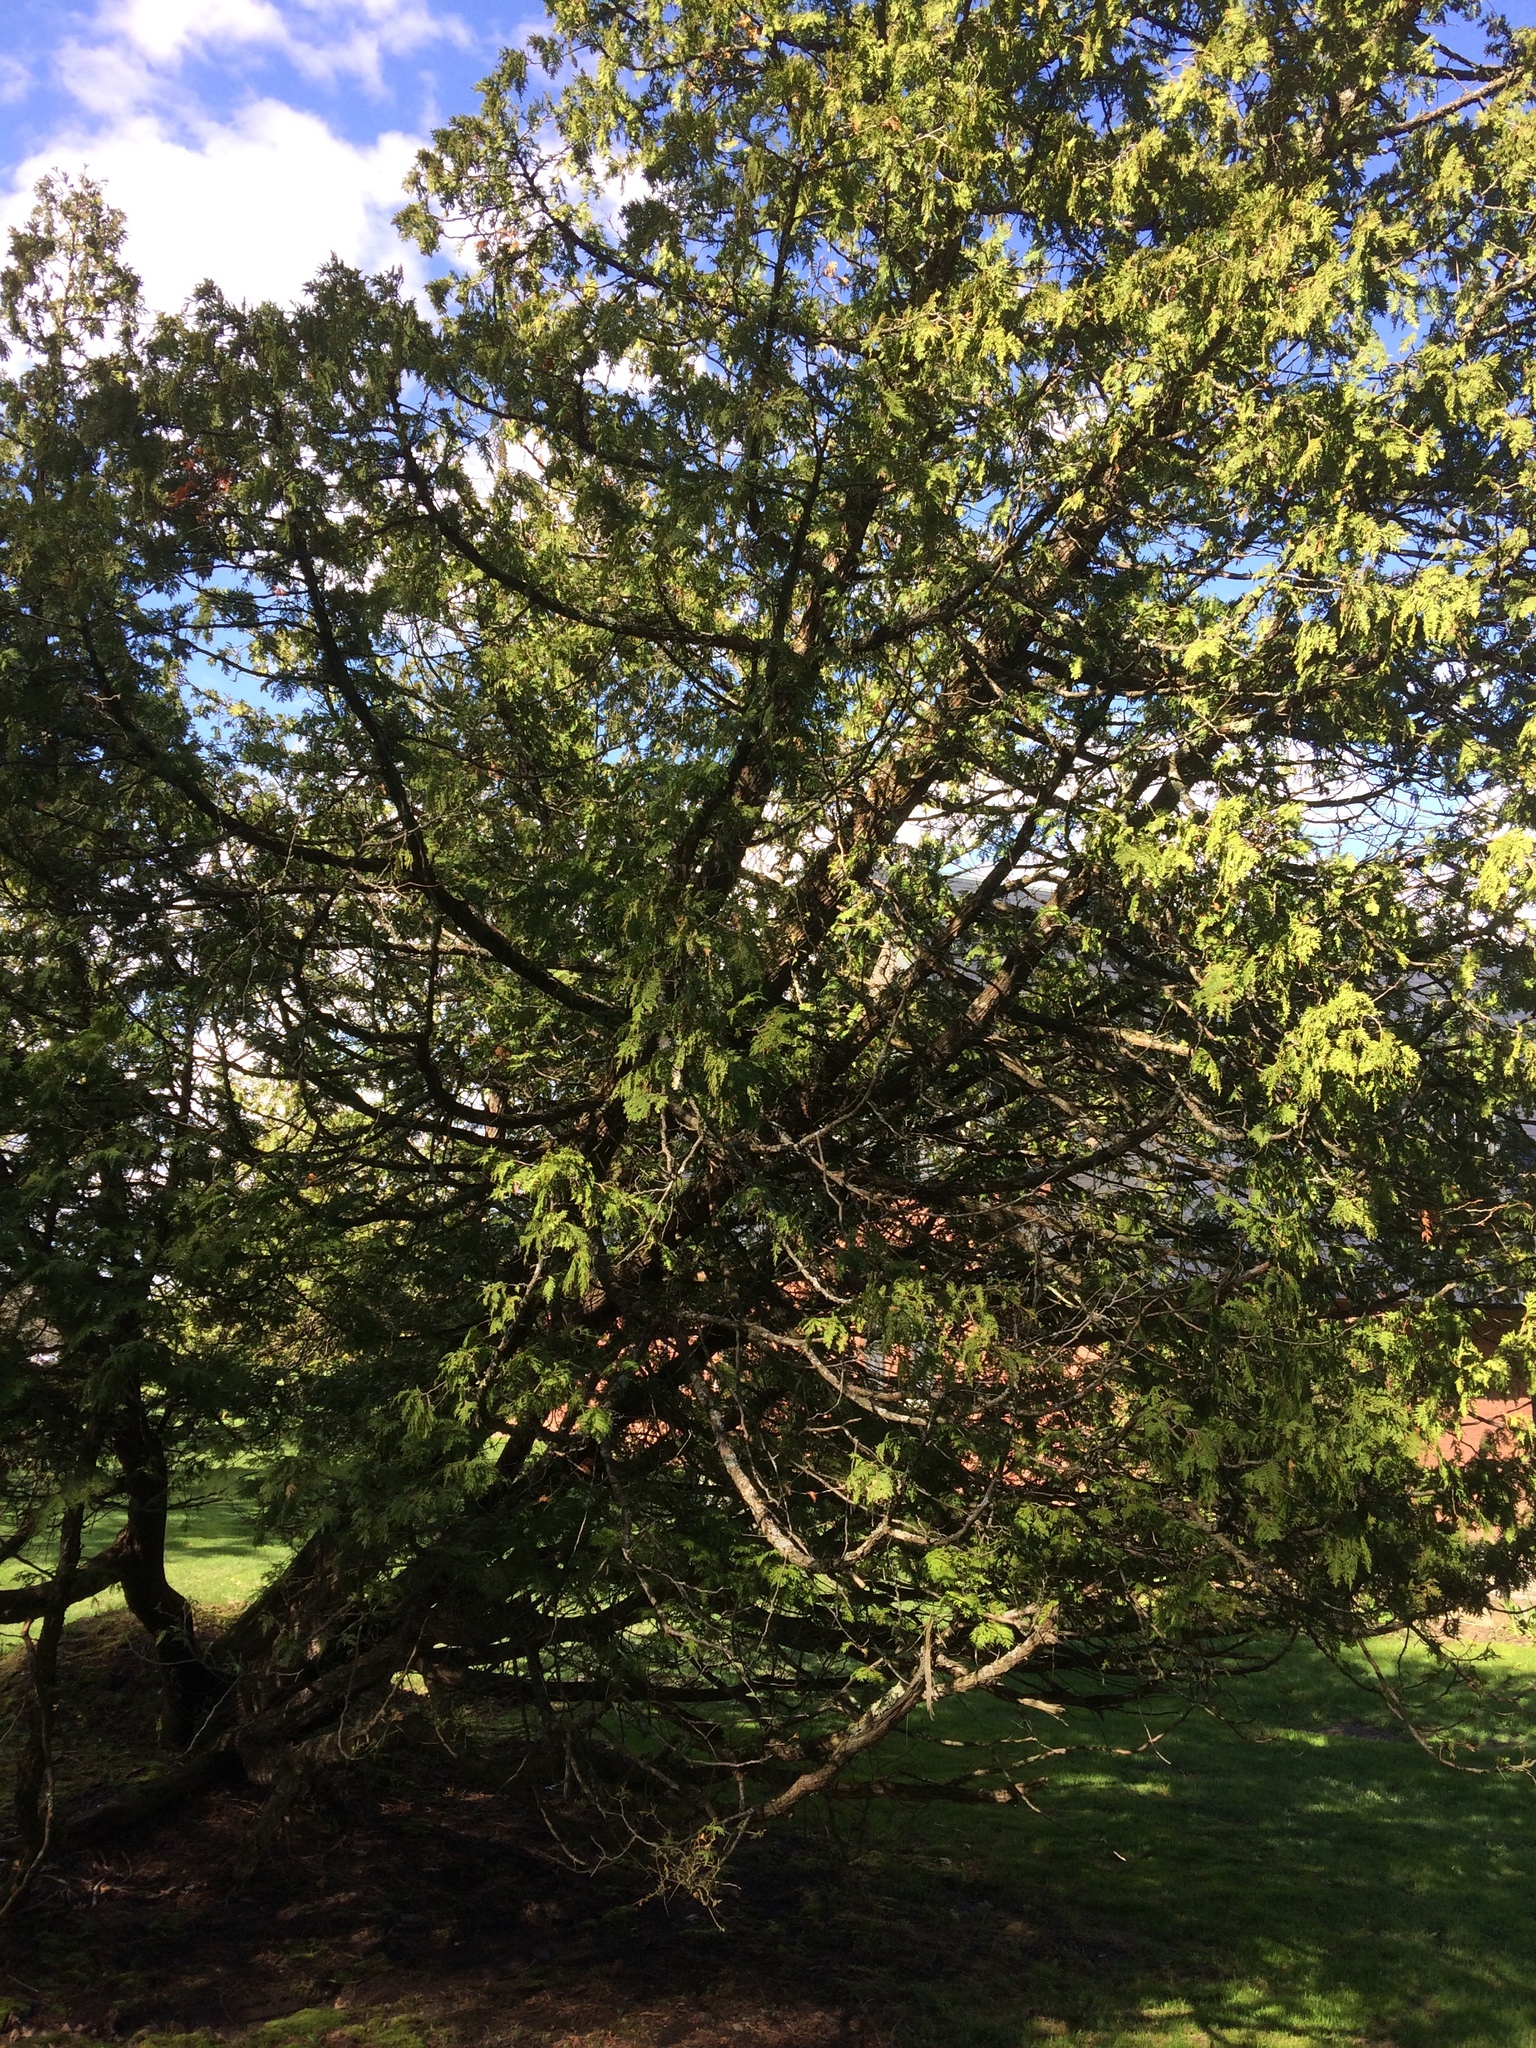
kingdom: Plantae
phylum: Tracheophyta
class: Pinopsida
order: Pinales
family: Cupressaceae
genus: Thuja
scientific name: Thuja occidentalis
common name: Northern white-cedar
